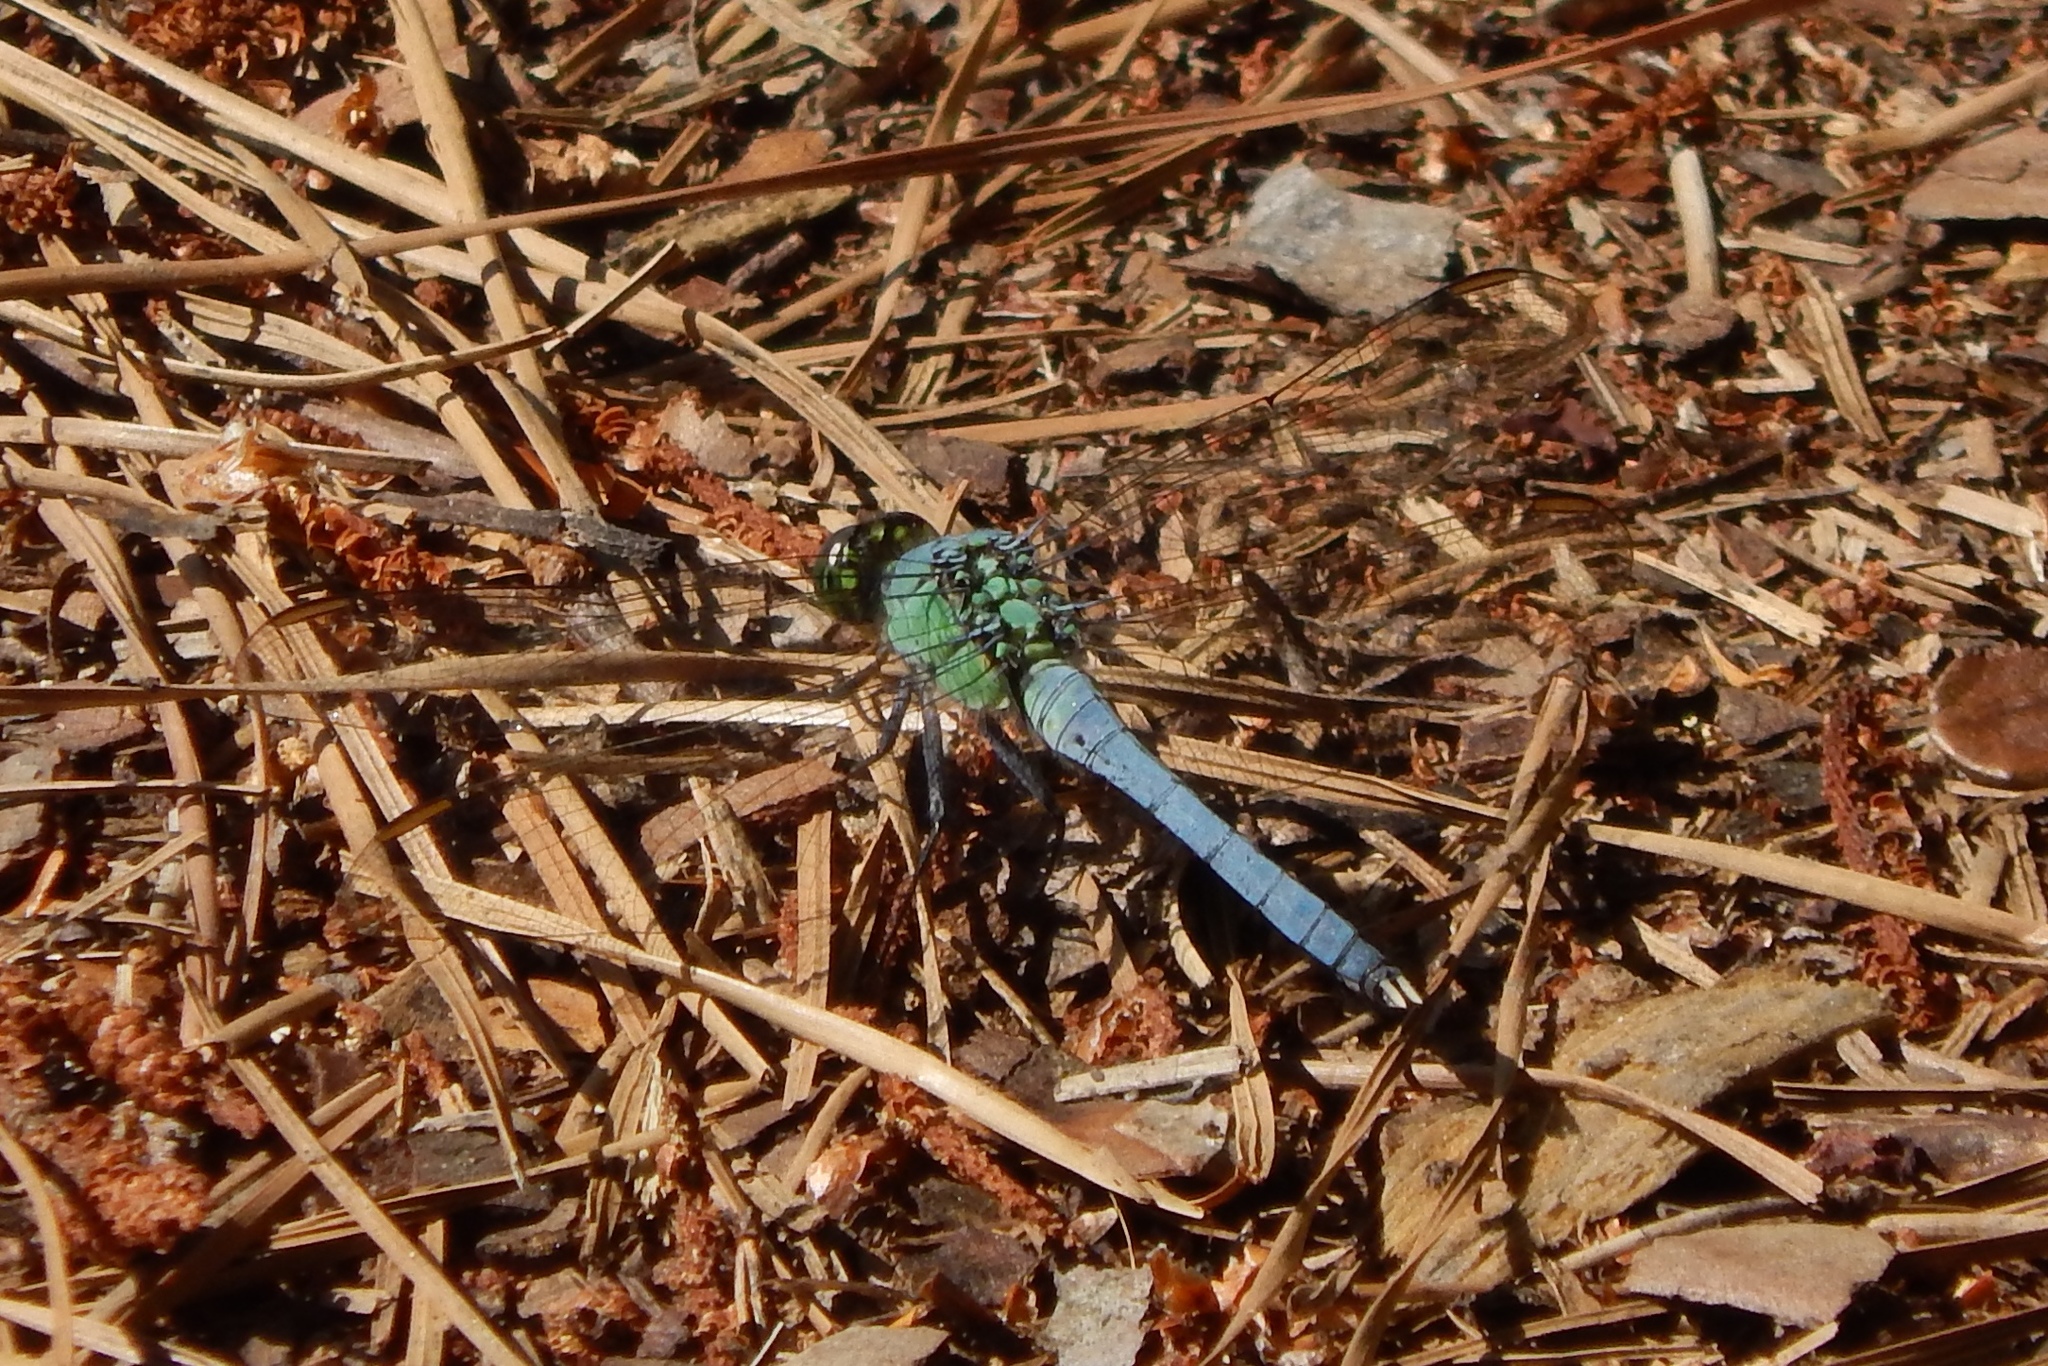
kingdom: Animalia
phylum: Arthropoda
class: Insecta
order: Odonata
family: Libellulidae
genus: Erythemis
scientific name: Erythemis simplicicollis
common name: Eastern pondhawk
